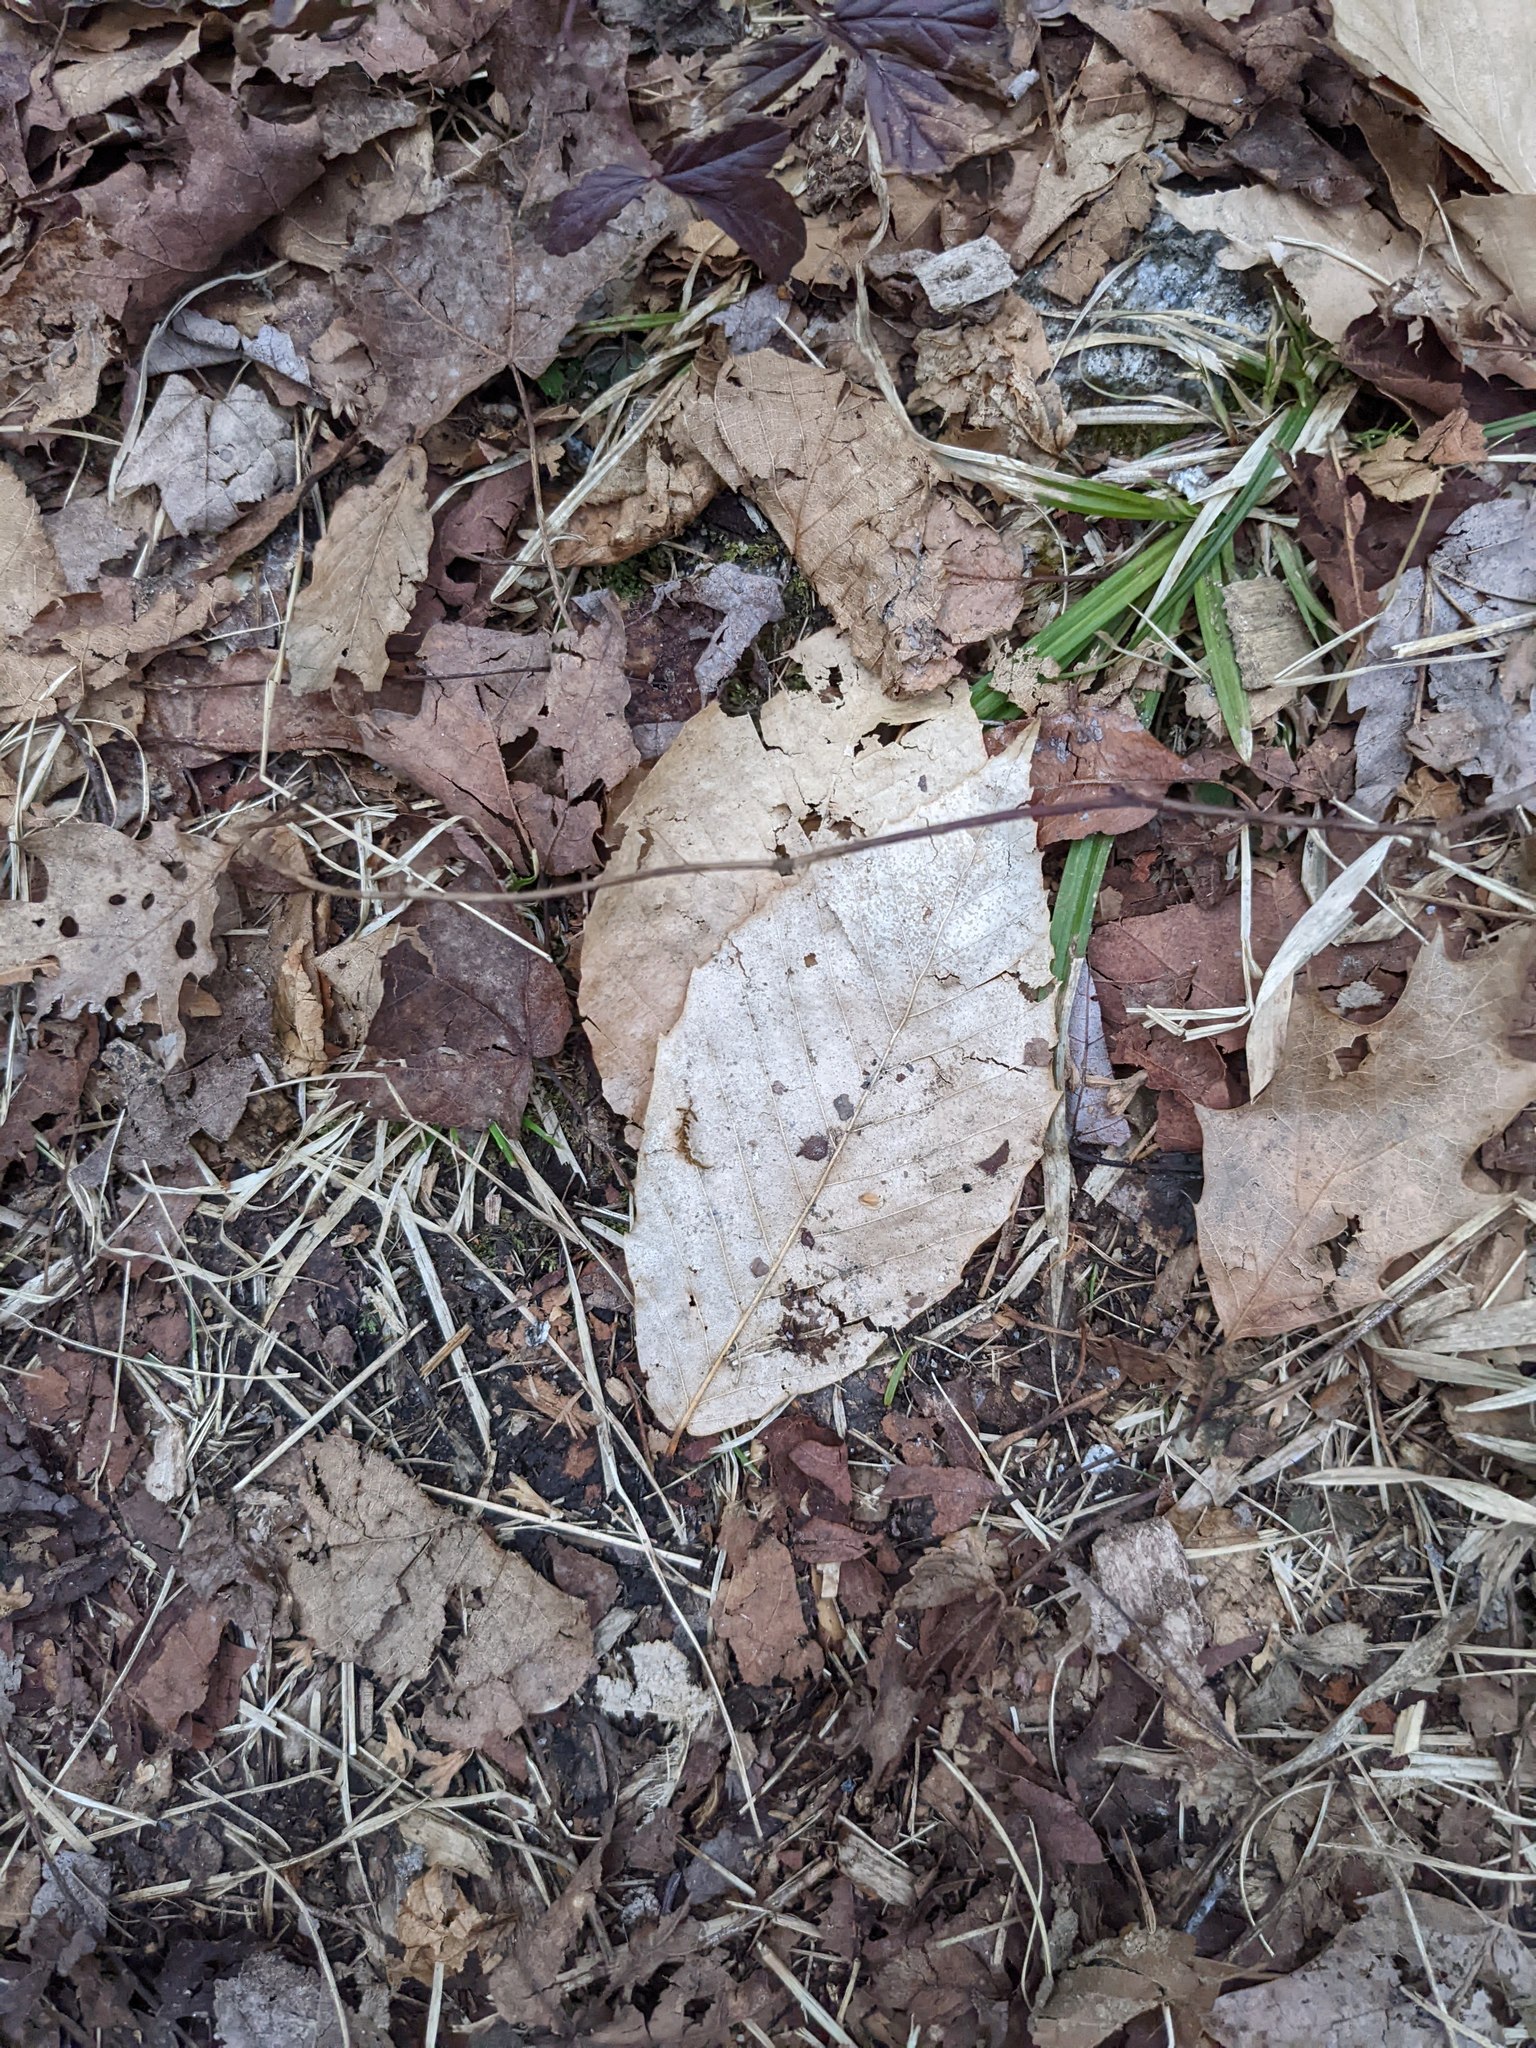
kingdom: Plantae
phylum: Tracheophyta
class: Magnoliopsida
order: Fagales
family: Fagaceae
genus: Fagus
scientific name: Fagus grandifolia
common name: American beech
